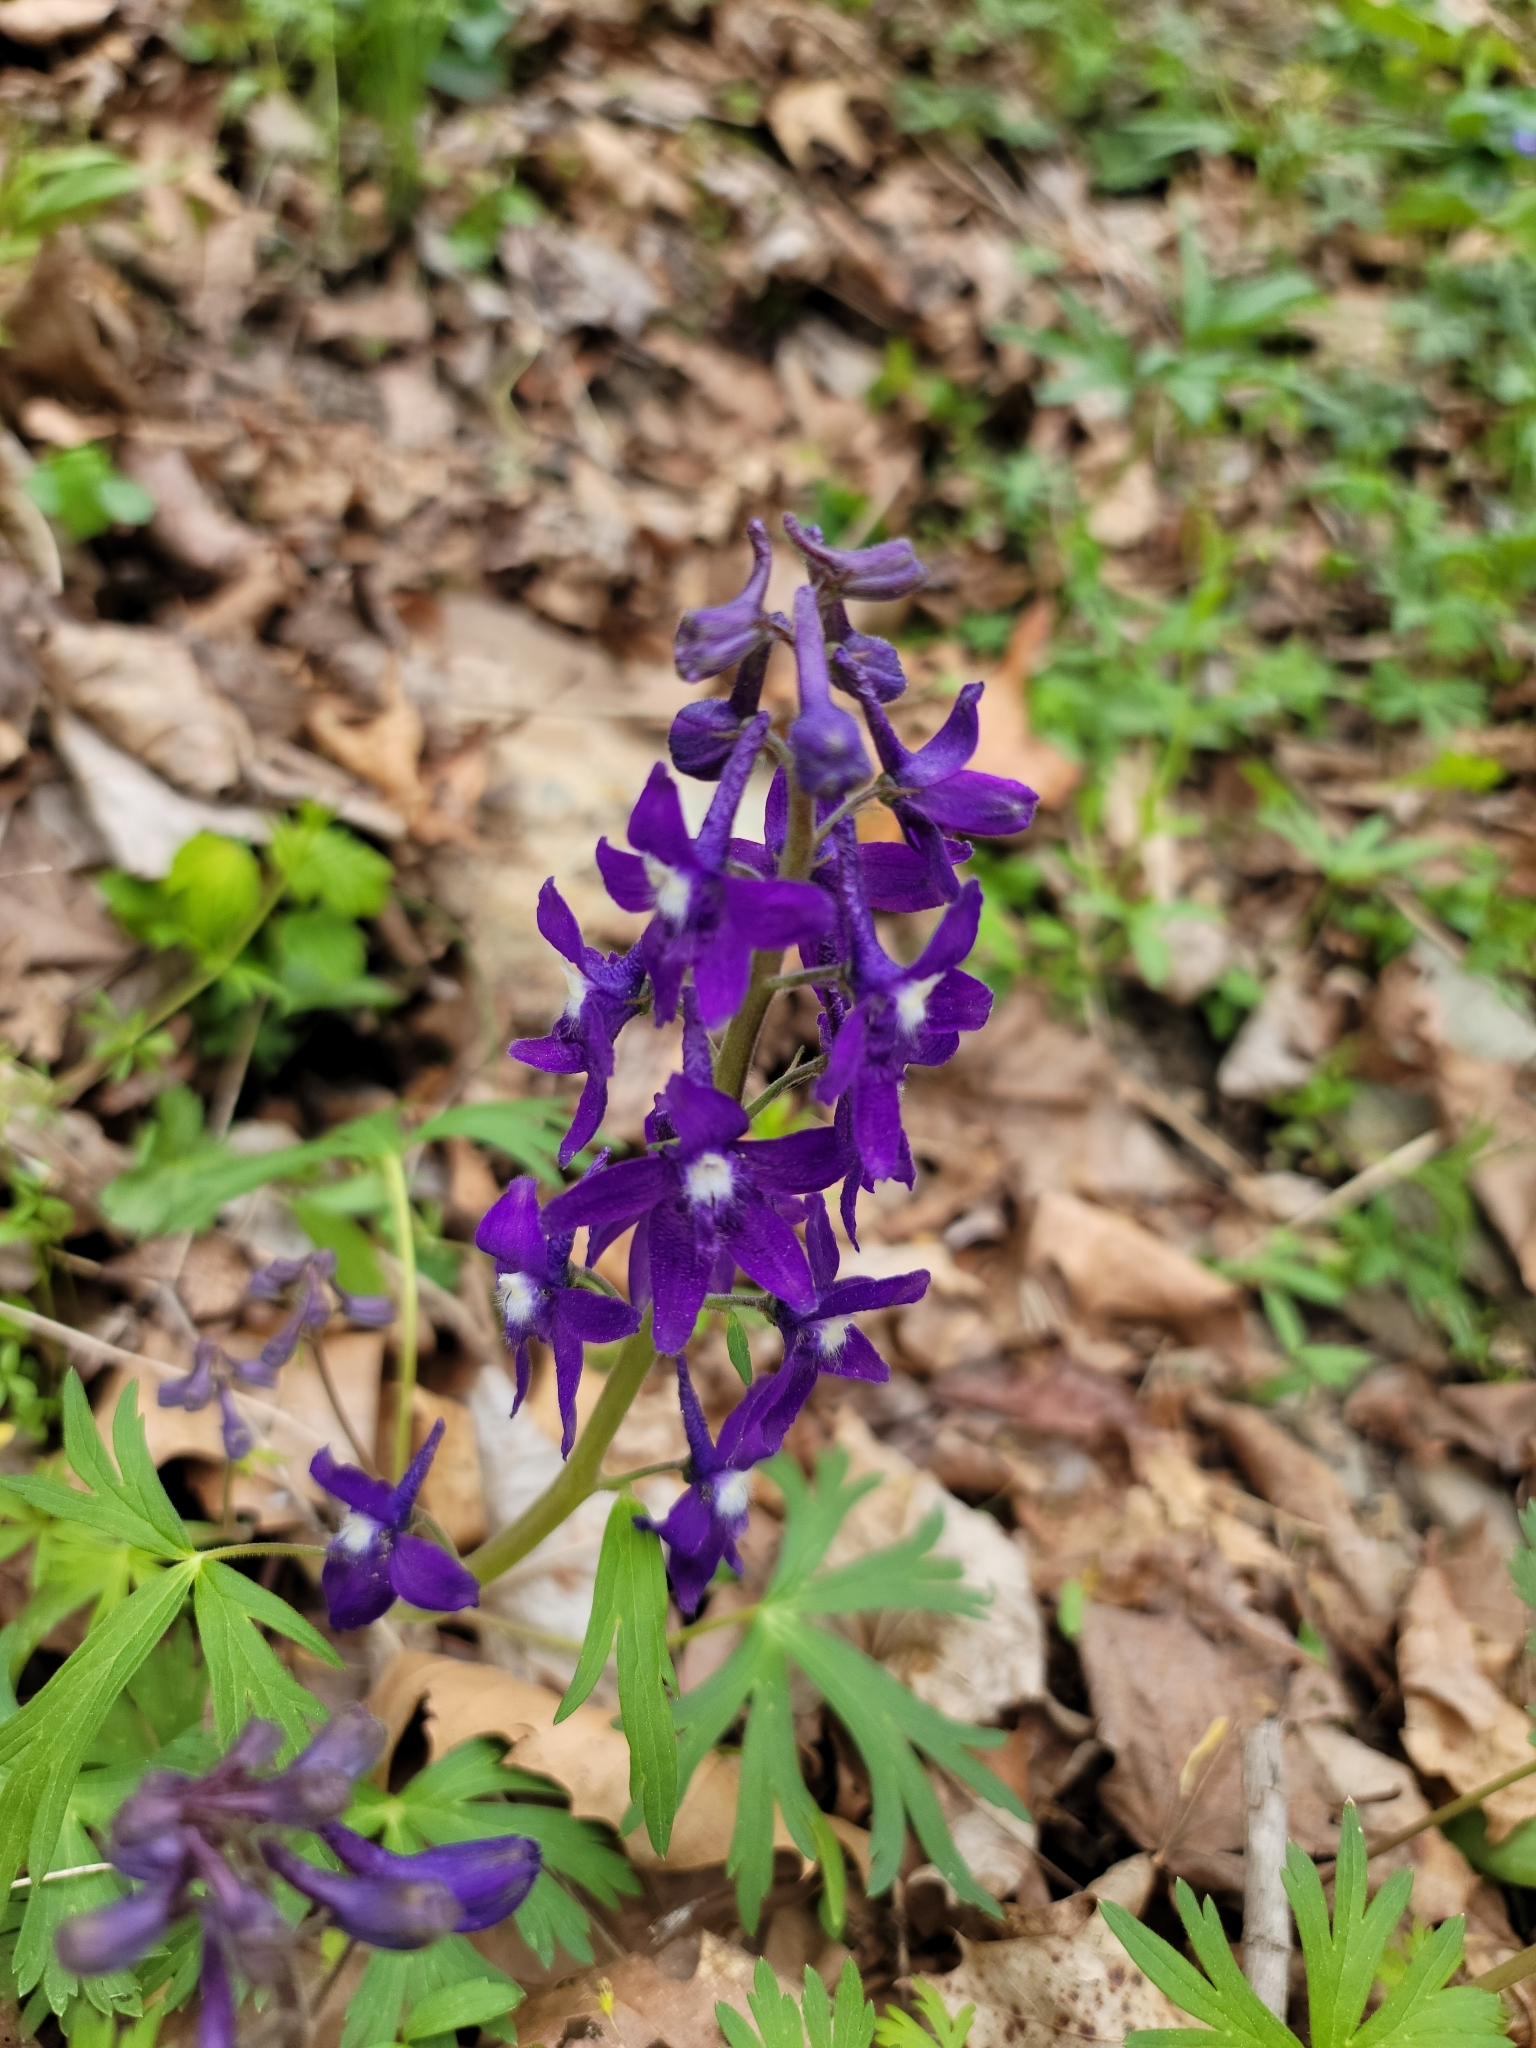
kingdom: Plantae
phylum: Tracheophyta
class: Magnoliopsida
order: Ranunculales
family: Ranunculaceae
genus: Delphinium
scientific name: Delphinium tricorne
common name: Dwarf larkspur
